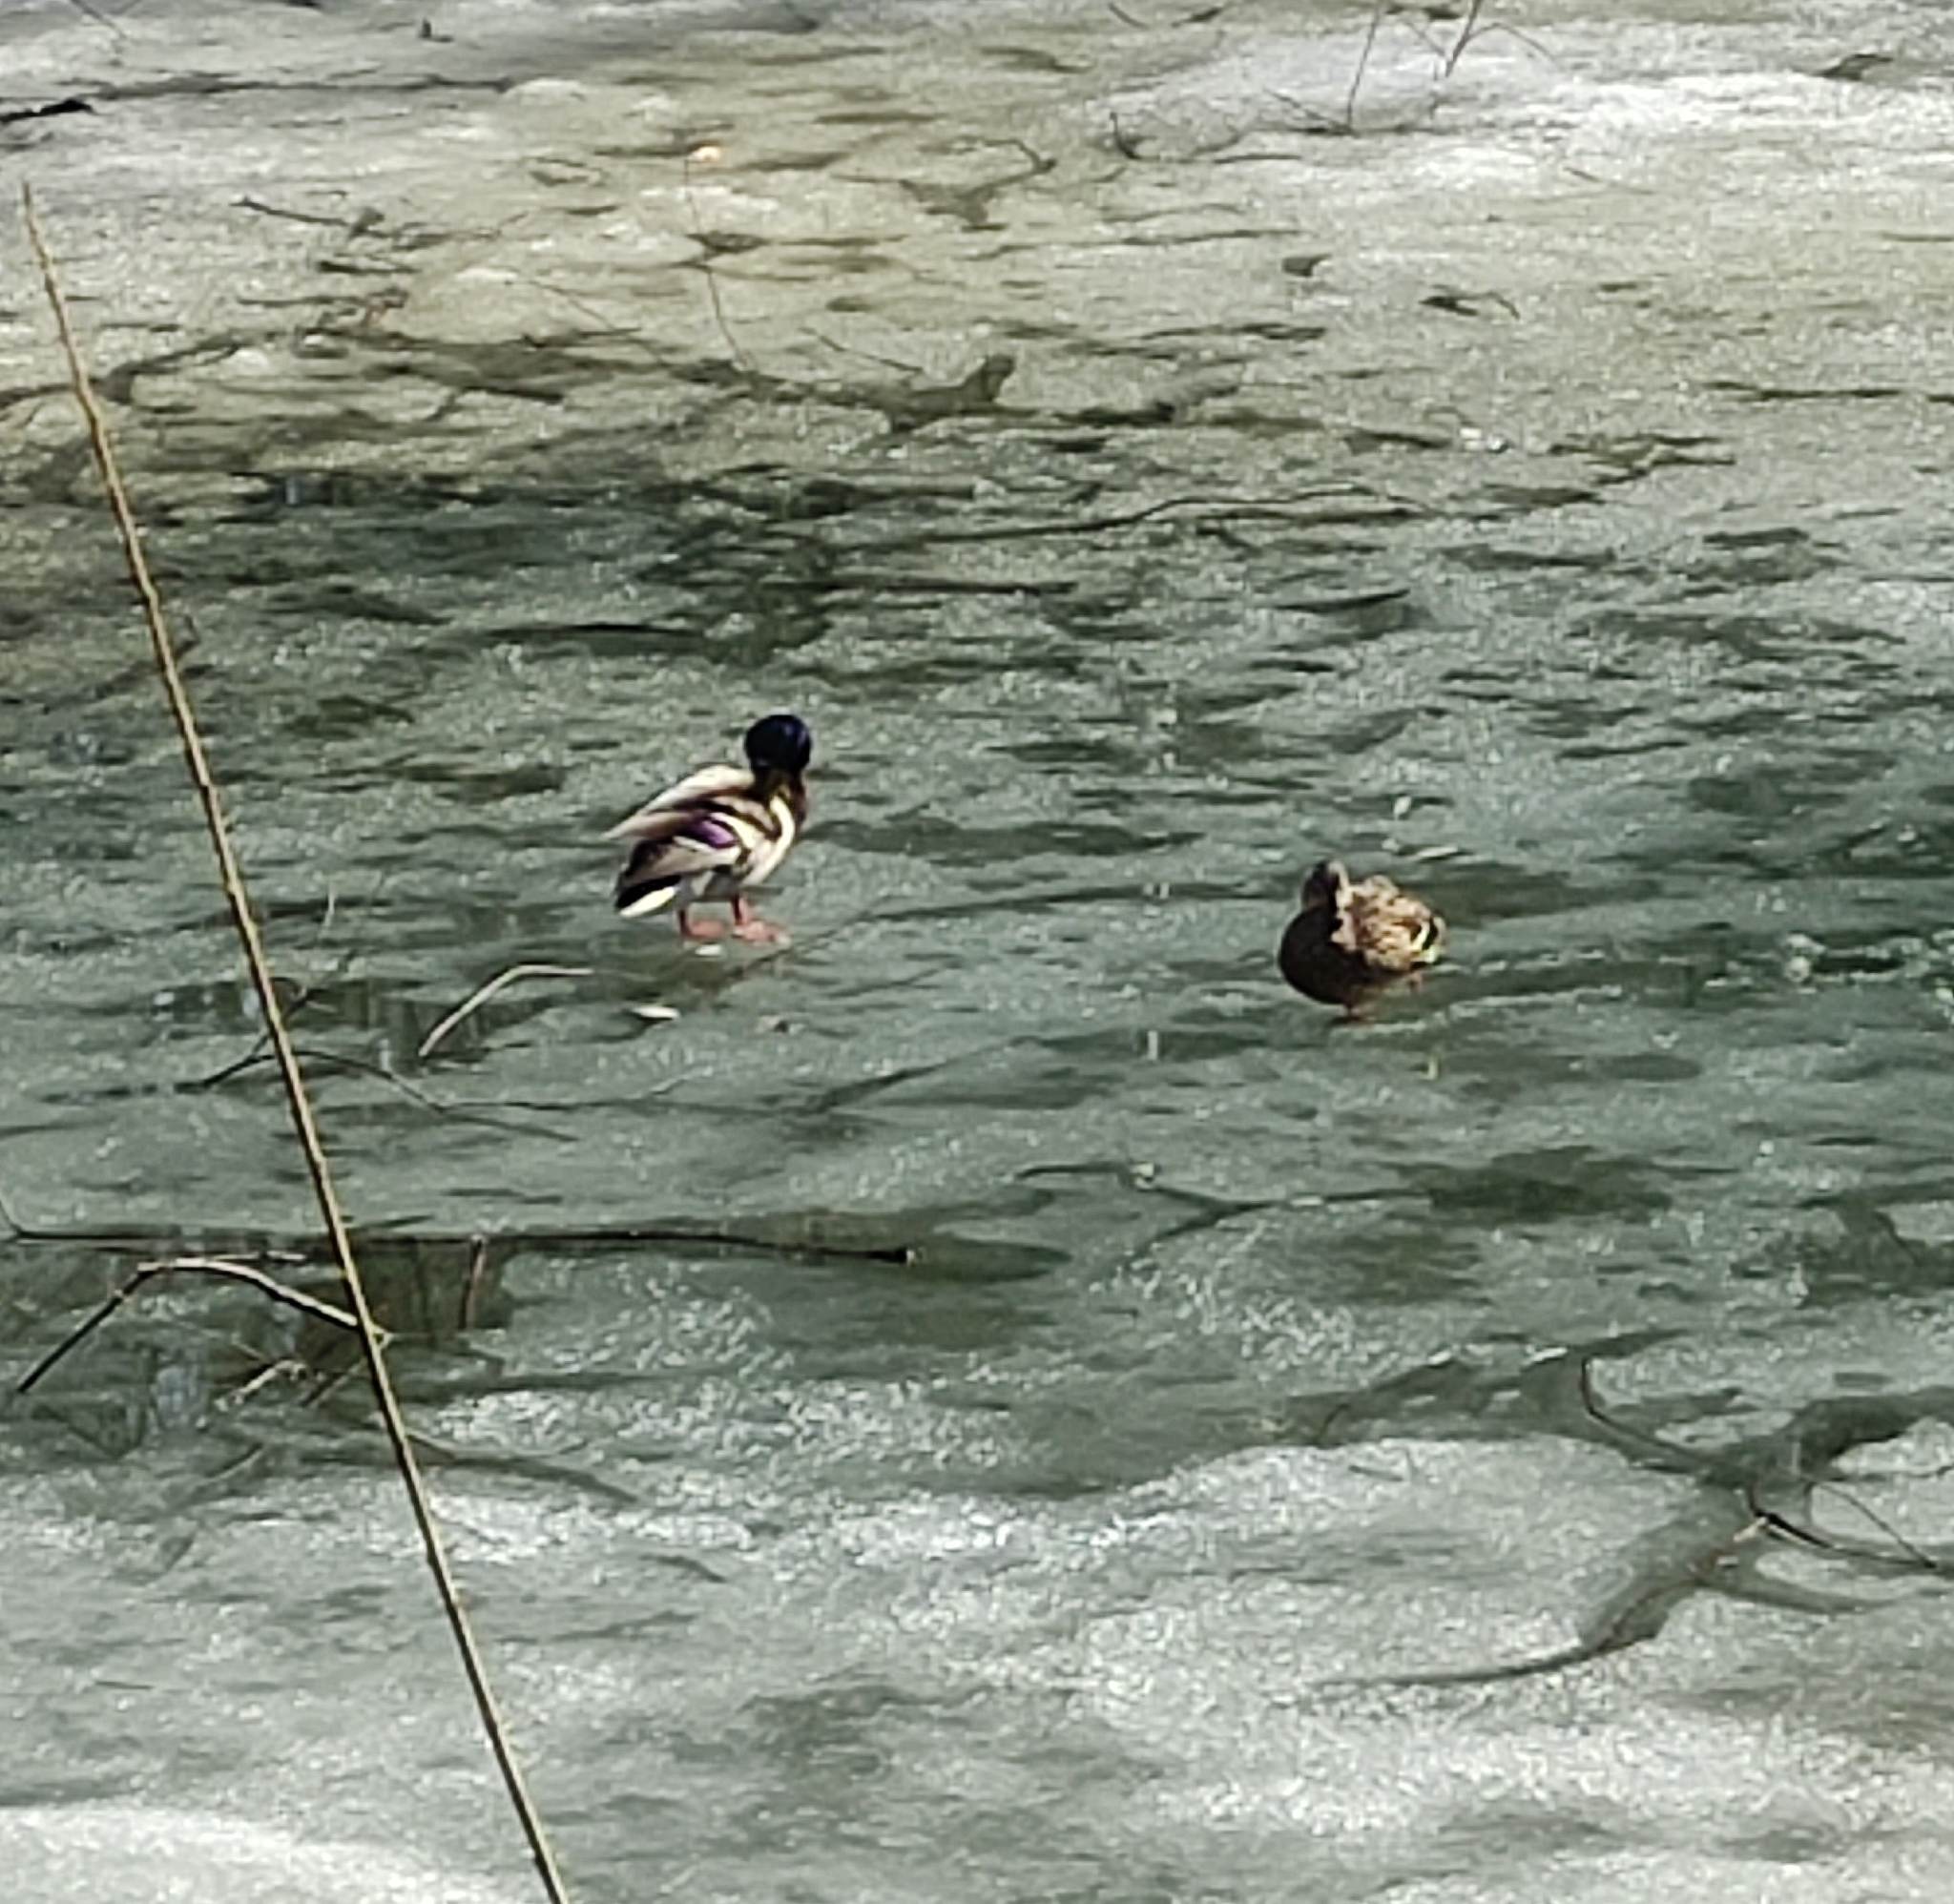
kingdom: Animalia
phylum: Chordata
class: Aves
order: Anseriformes
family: Anatidae
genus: Anas
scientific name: Anas platyrhynchos
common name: Mallard
